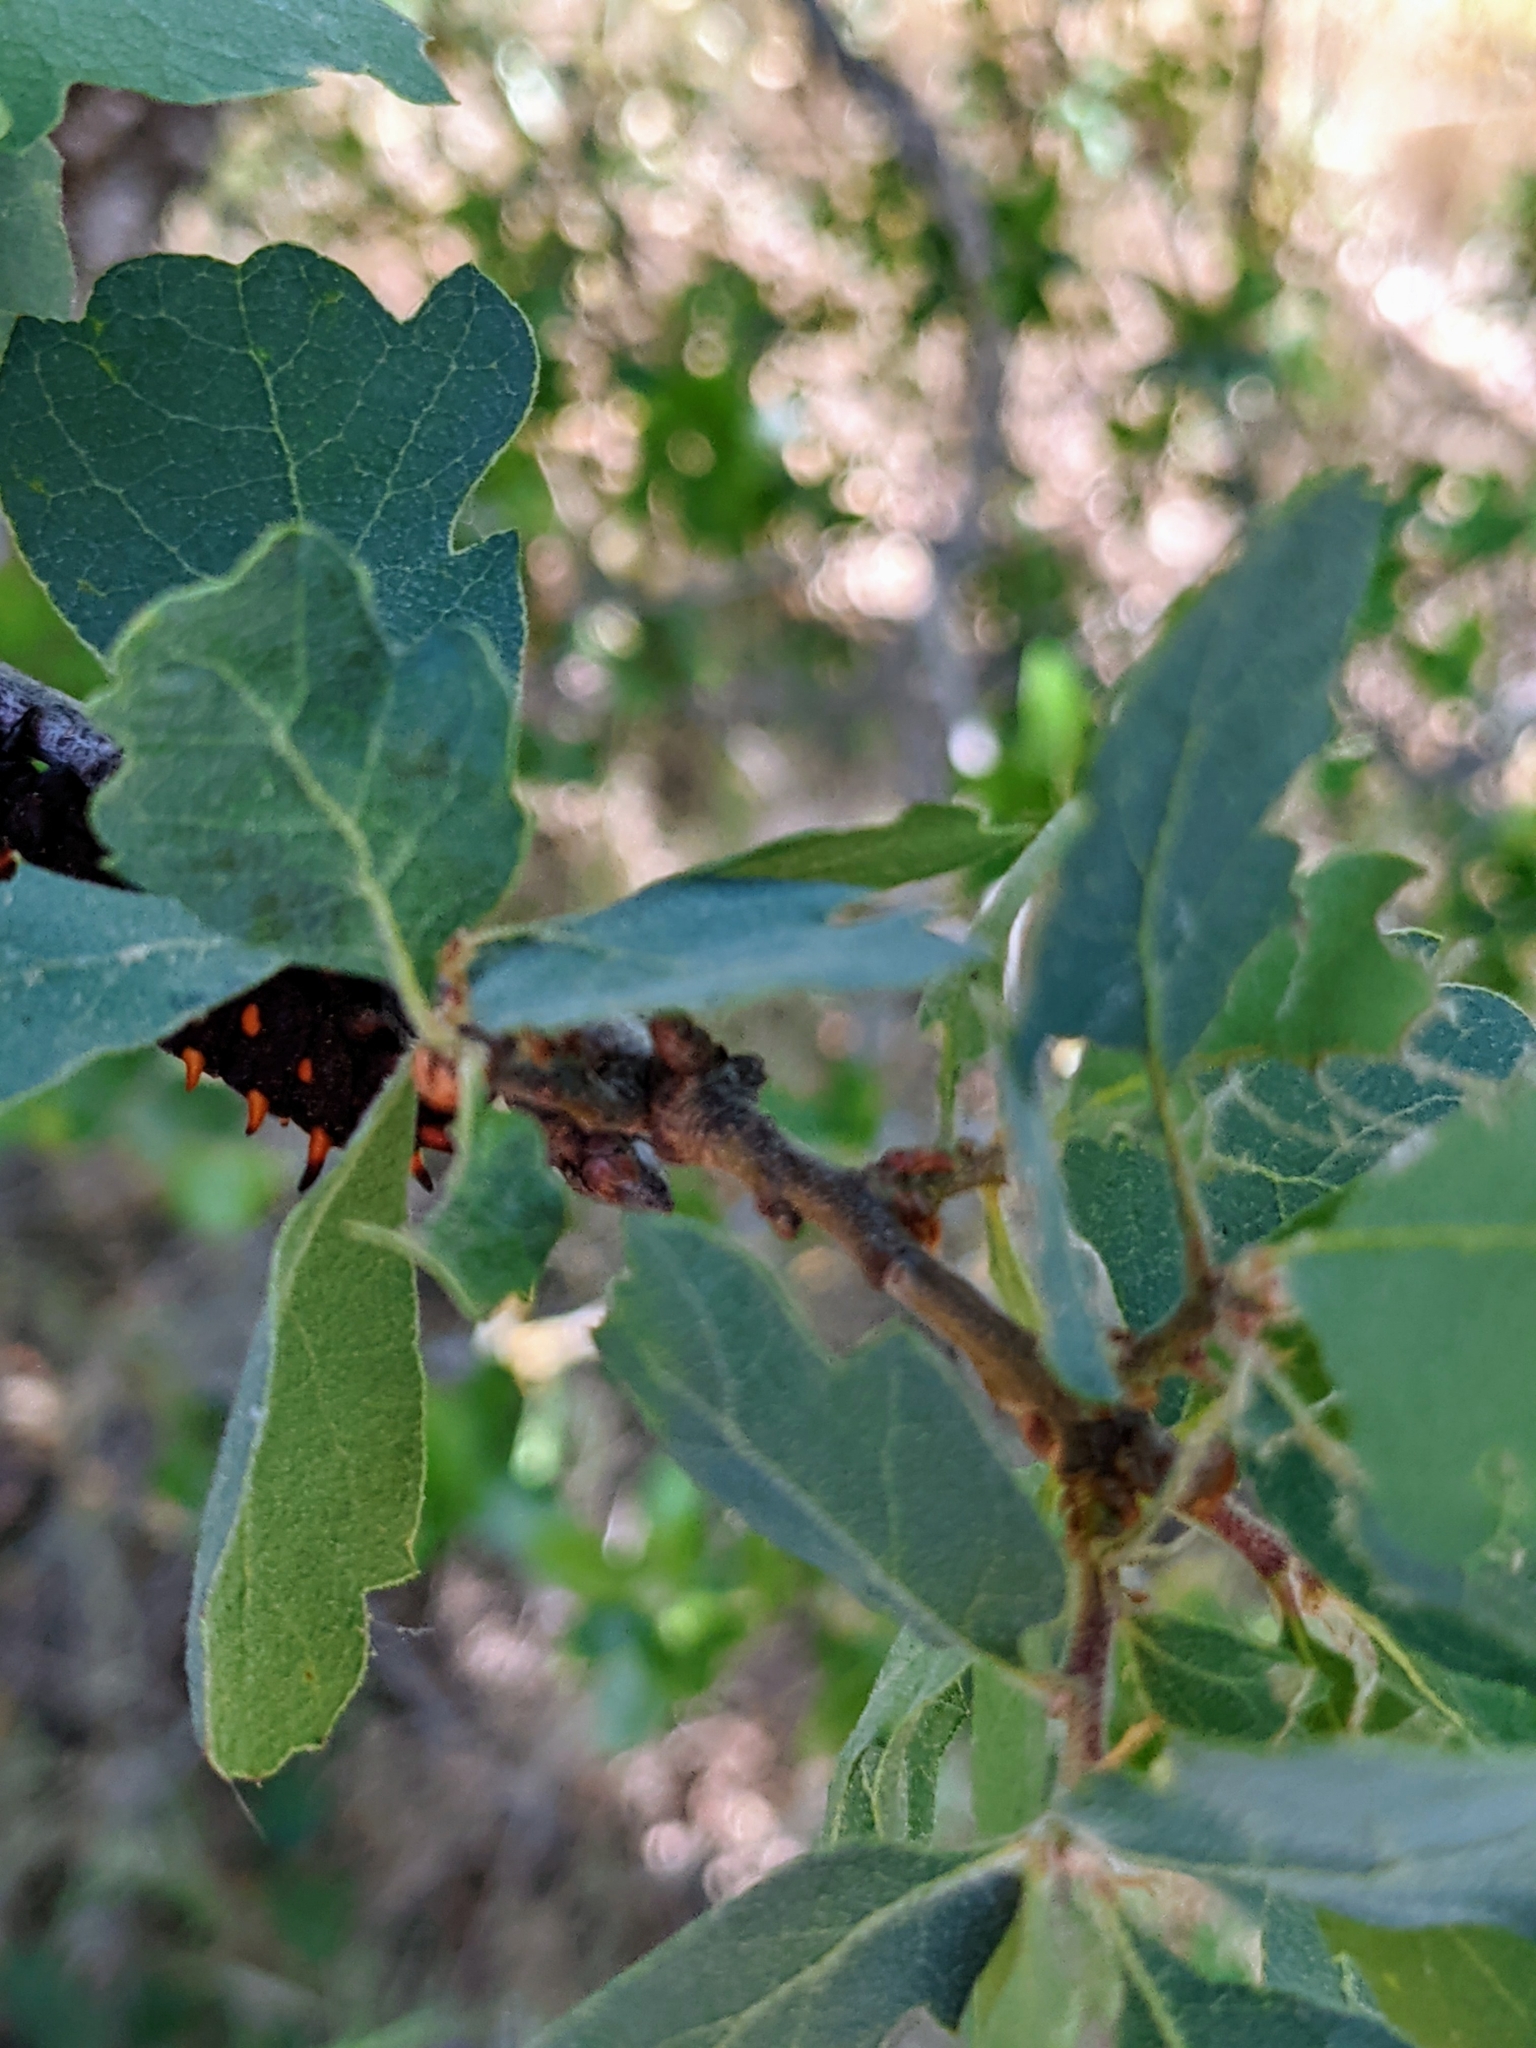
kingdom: Plantae
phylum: Tracheophyta
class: Magnoliopsida
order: Fagales
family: Fagaceae
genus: Quercus
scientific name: Quercus douglasii
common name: Blue oak
